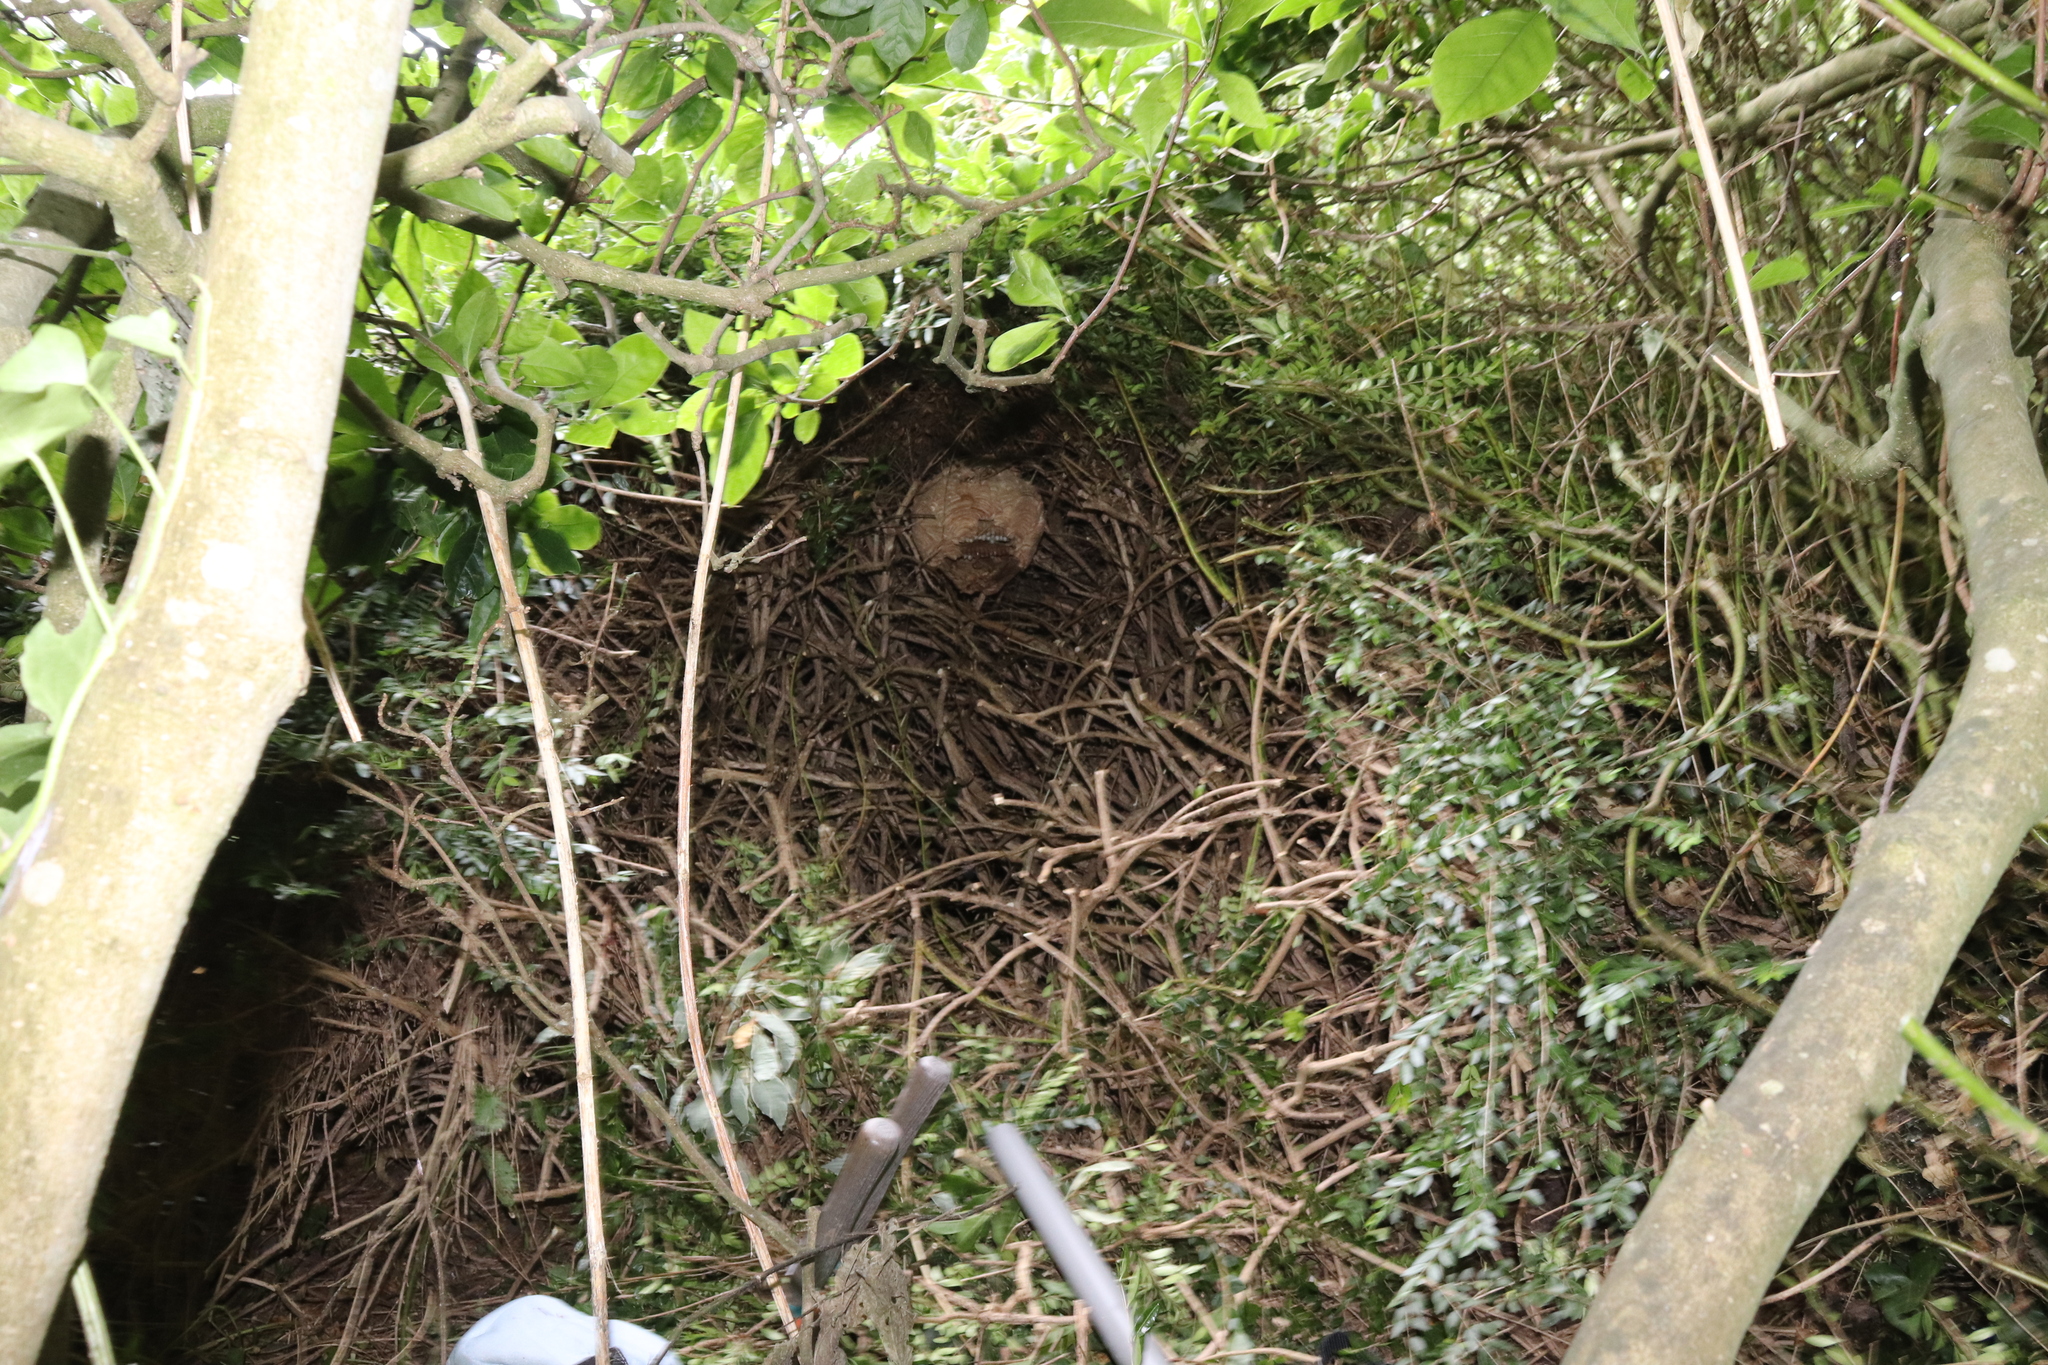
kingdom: Animalia
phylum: Arthropoda
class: Insecta
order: Hymenoptera
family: Vespidae
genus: Vespa
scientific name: Vespa velutina
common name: Asian hornet
